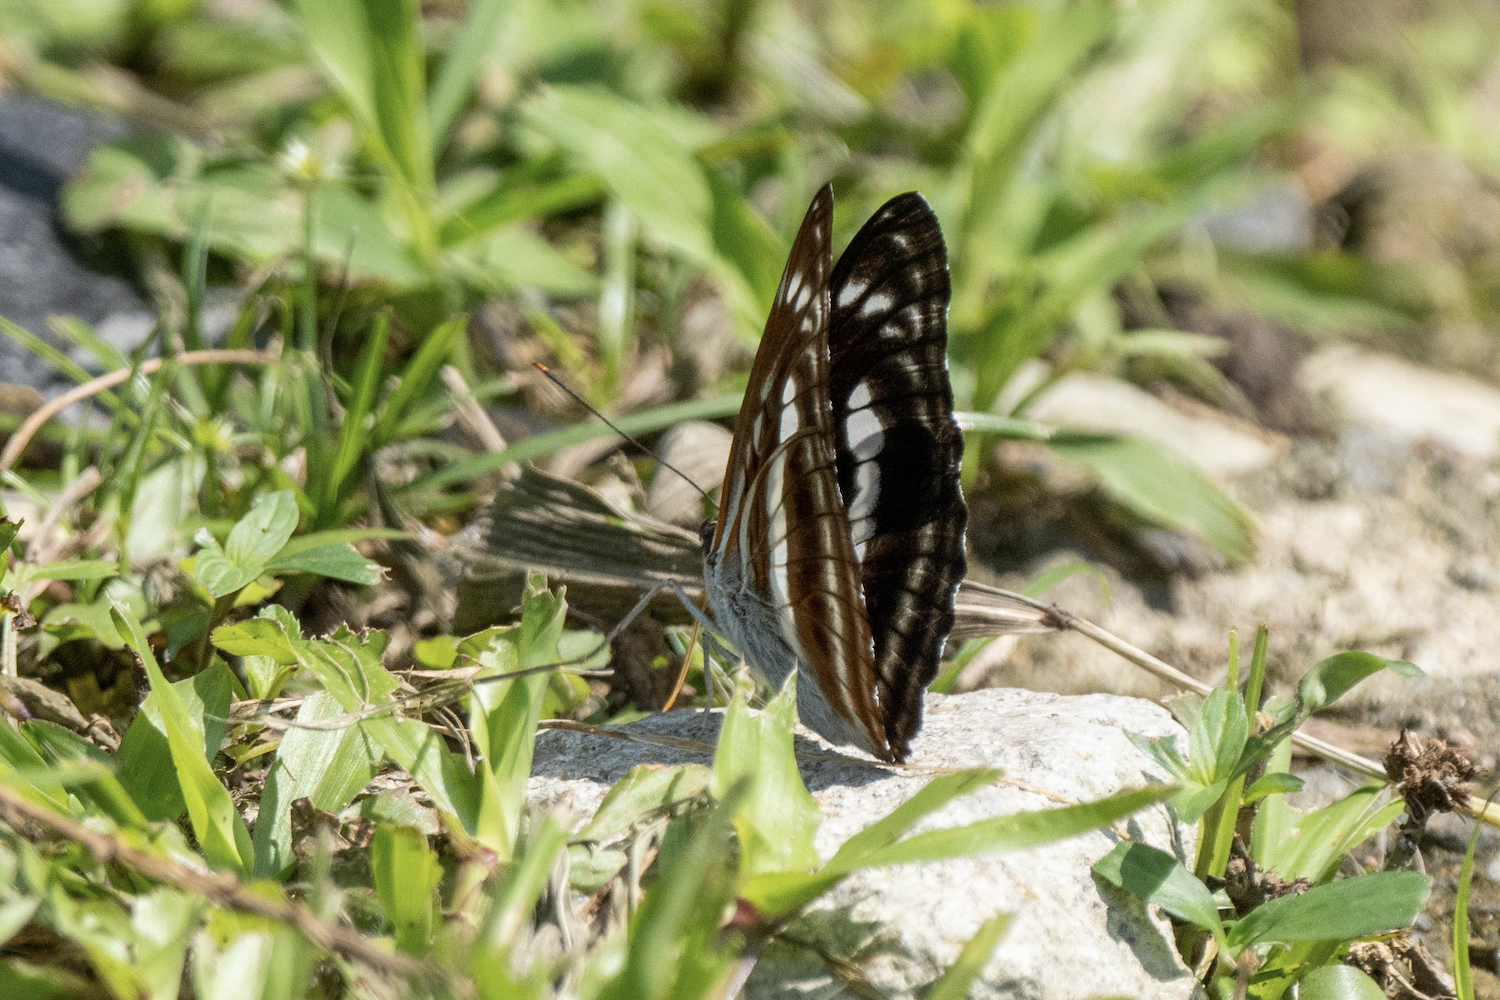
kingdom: Animalia
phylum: Arthropoda
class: Insecta
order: Lepidoptera
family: Nymphalidae
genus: Parathyma
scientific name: Parathyma selenophora
